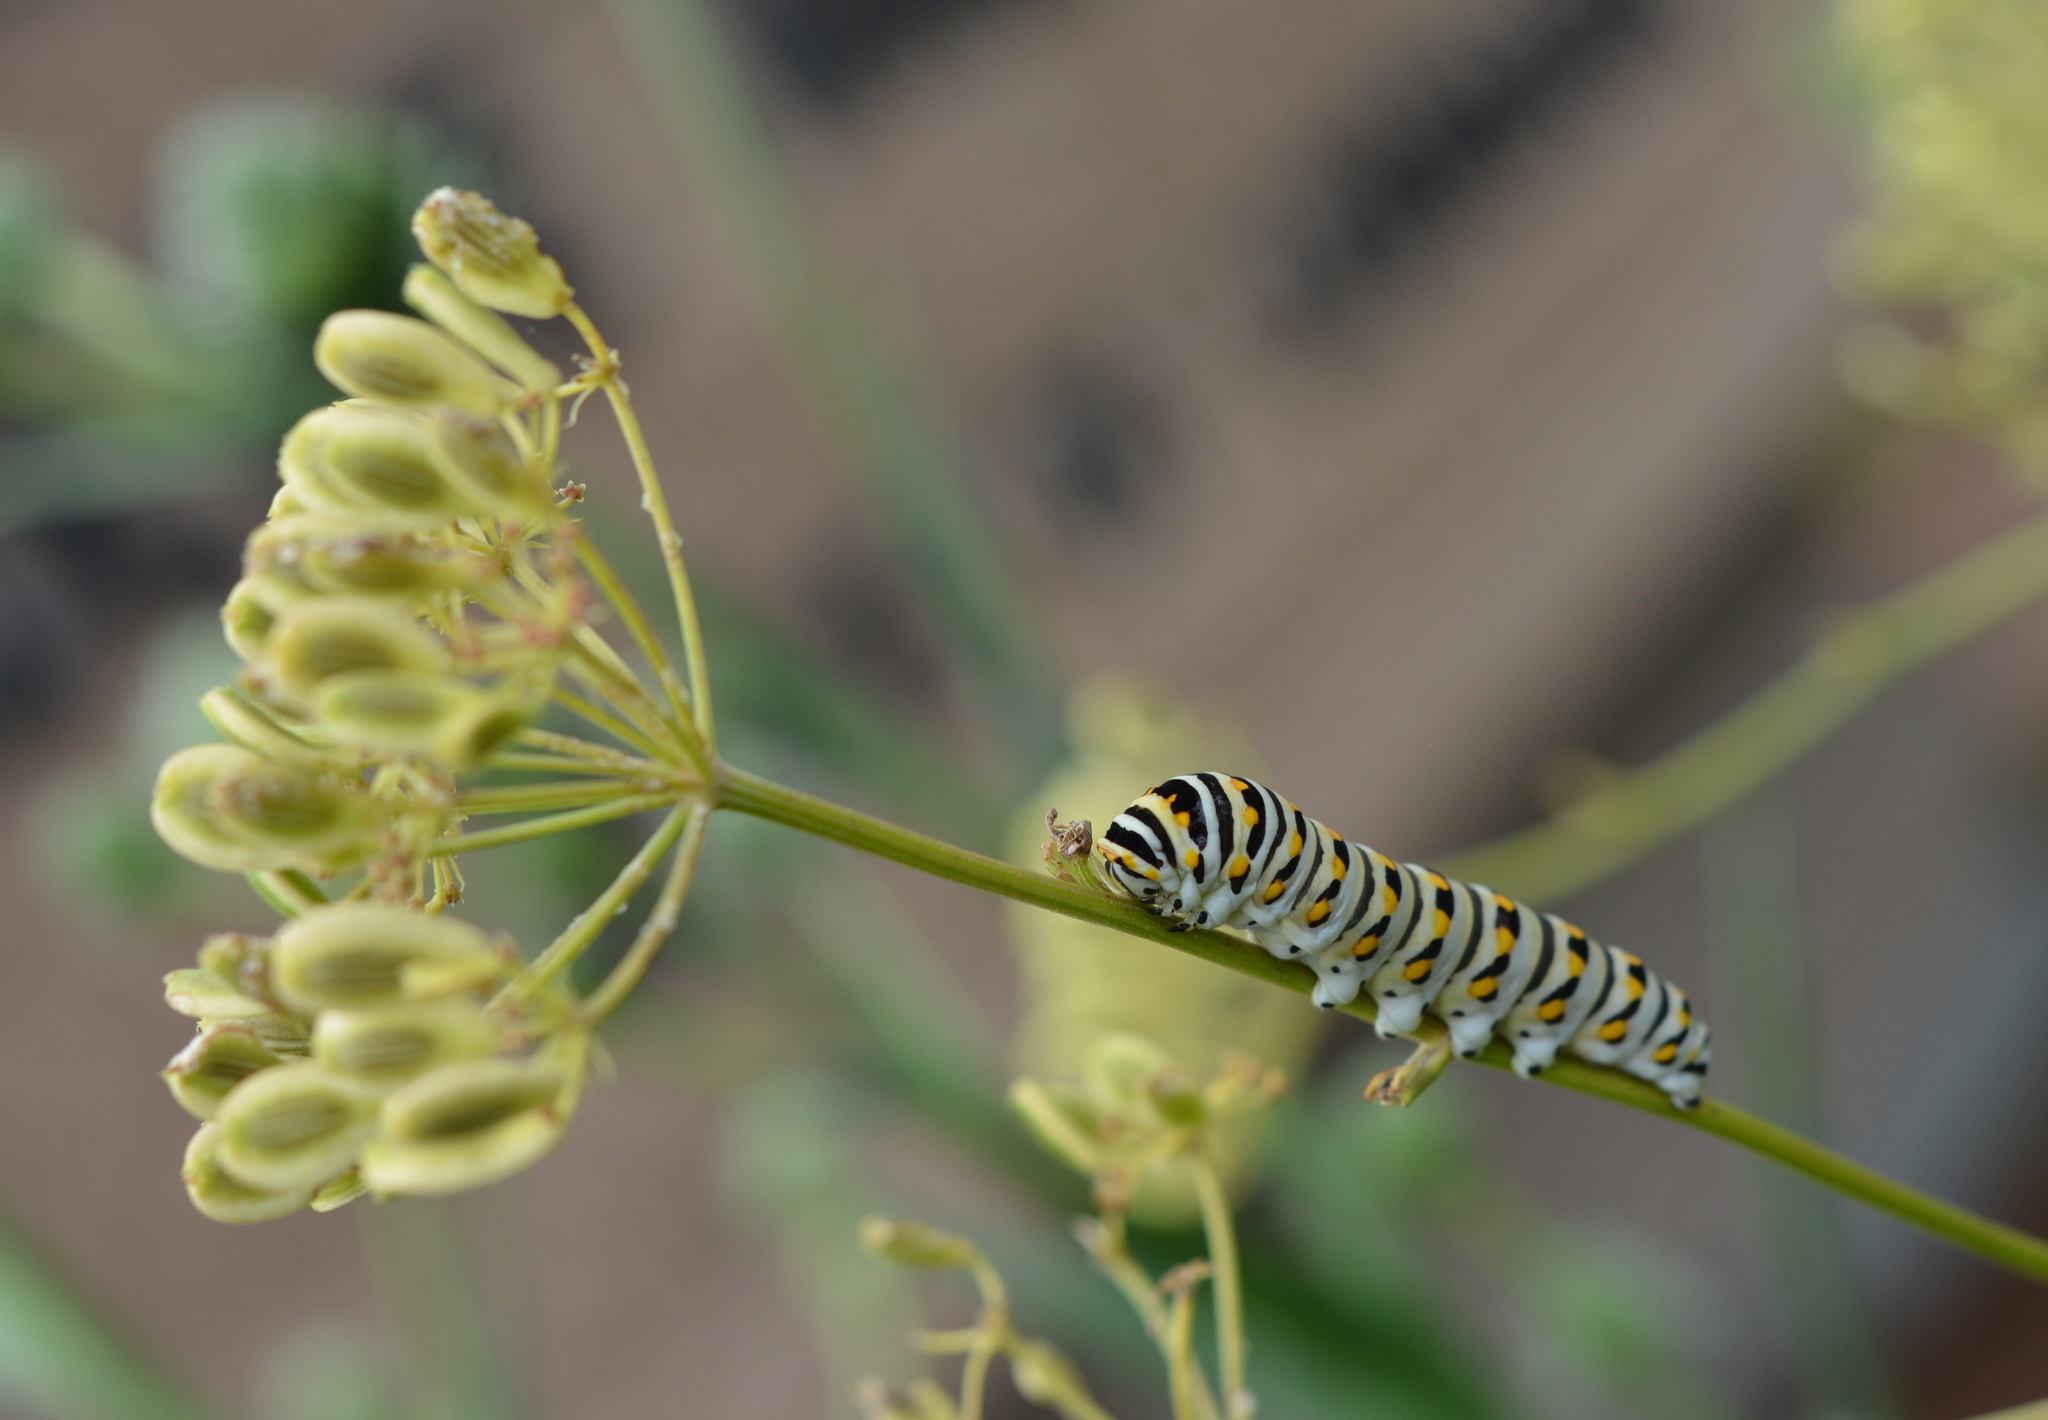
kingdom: Animalia
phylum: Arthropoda
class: Insecta
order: Lepidoptera
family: Papilionidae
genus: Papilio
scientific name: Papilio polyxenes
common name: Black swallowtail
